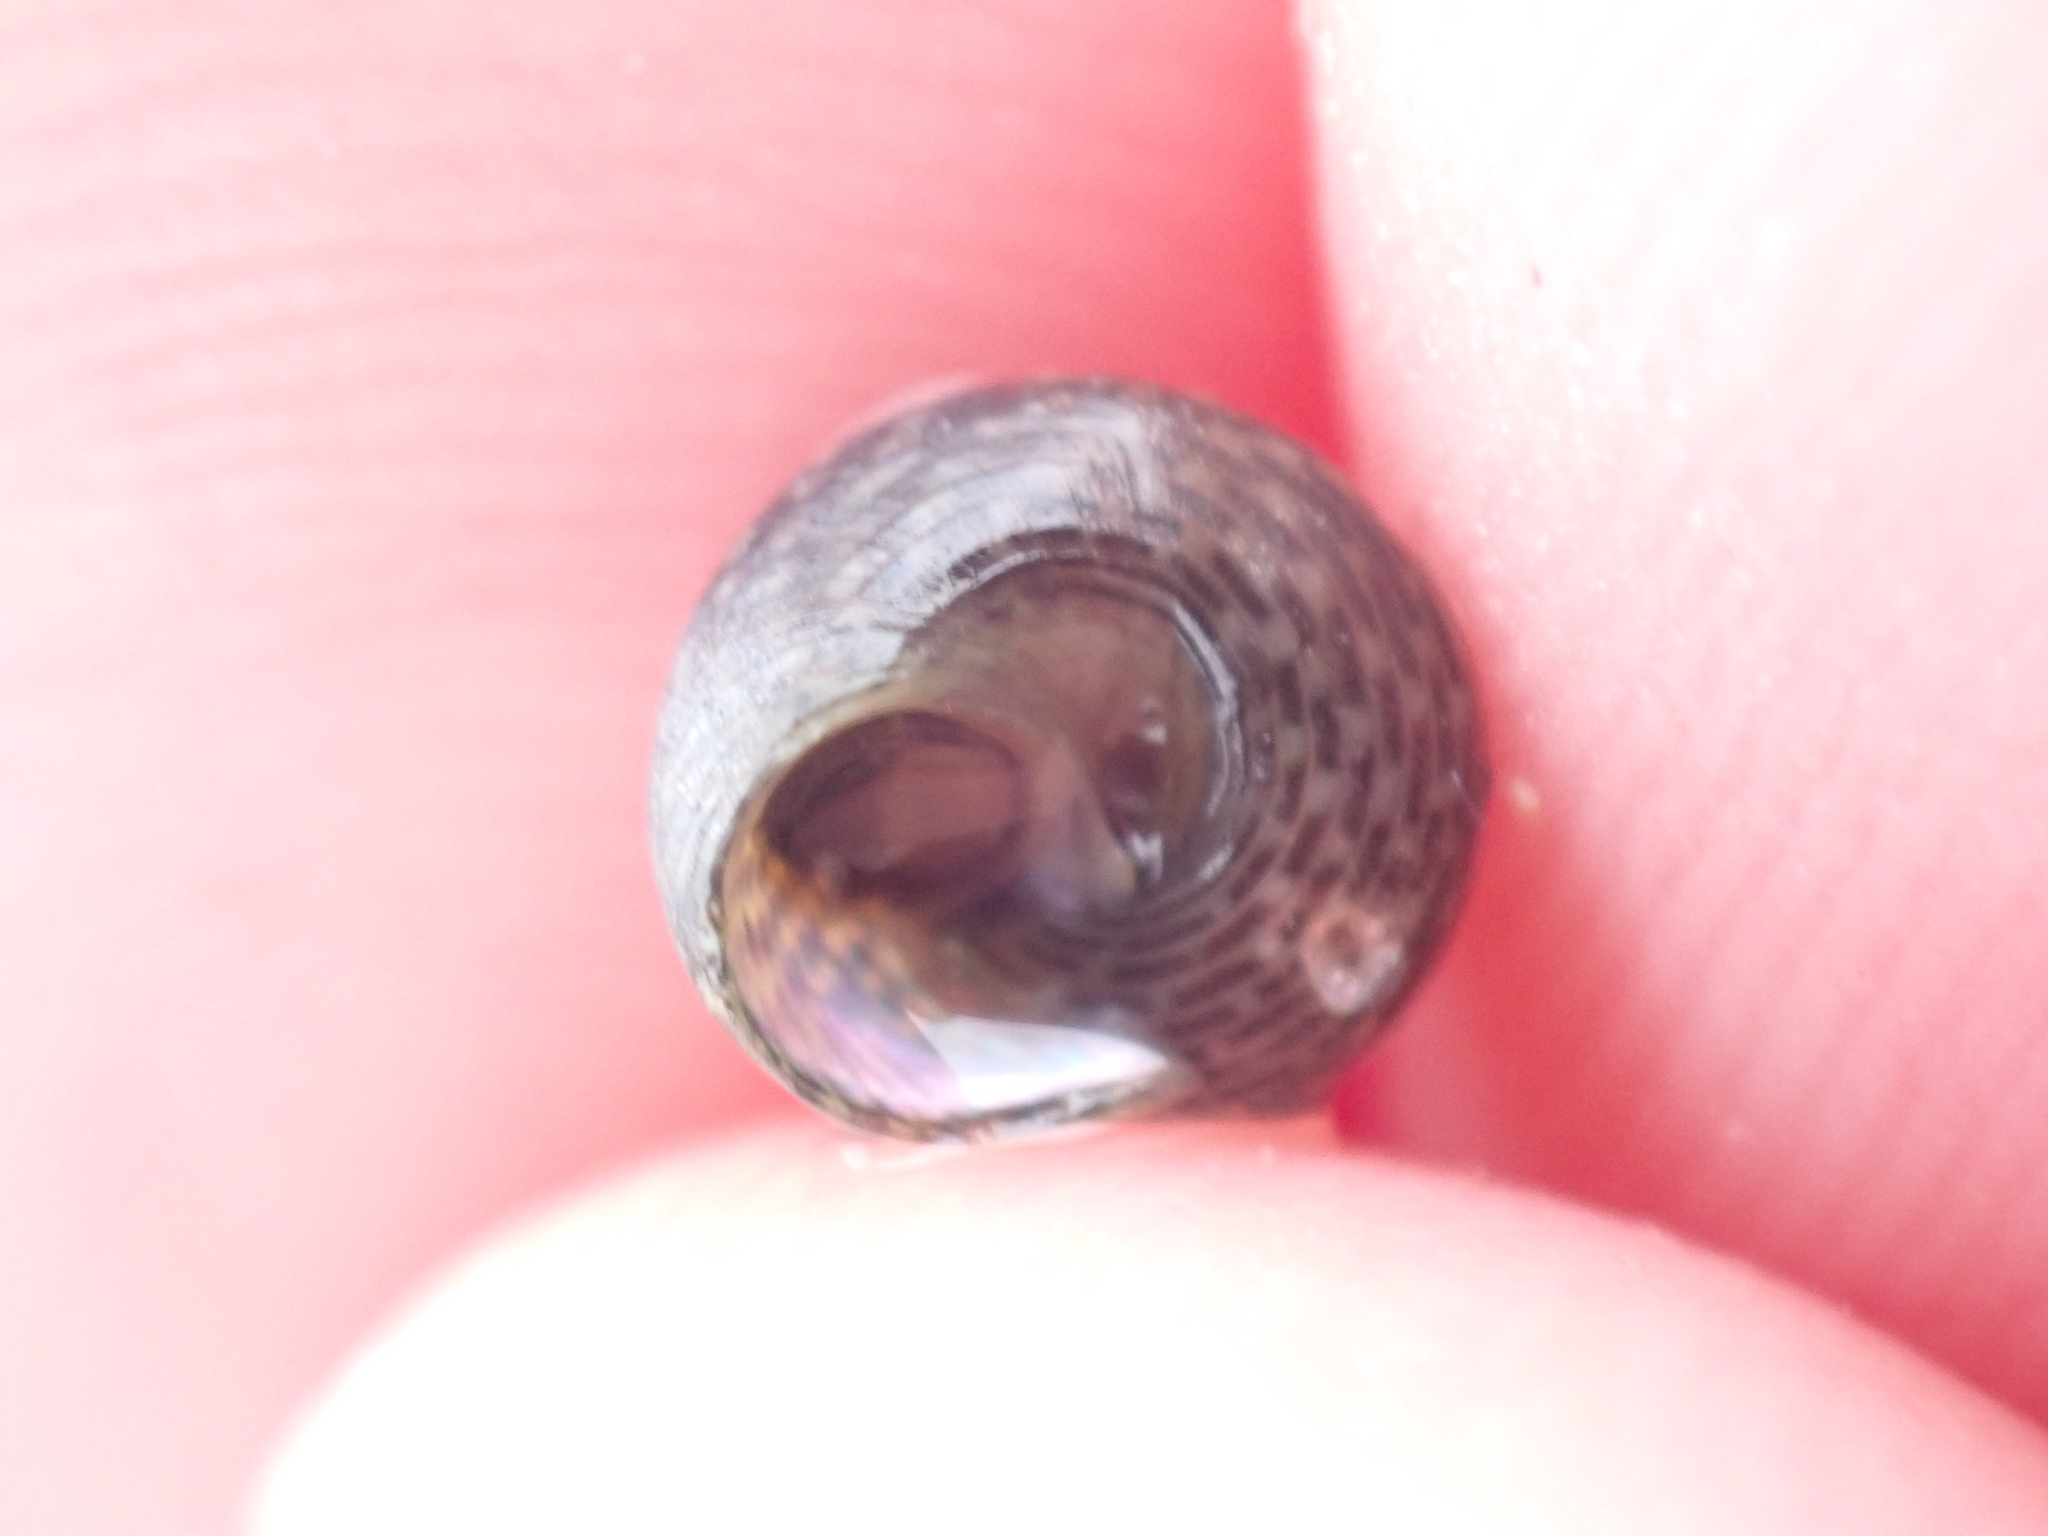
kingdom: Animalia
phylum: Mollusca
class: Gastropoda
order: Trochida
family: Trochidae
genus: Micrelenchus
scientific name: Micrelenchus tessellatus
